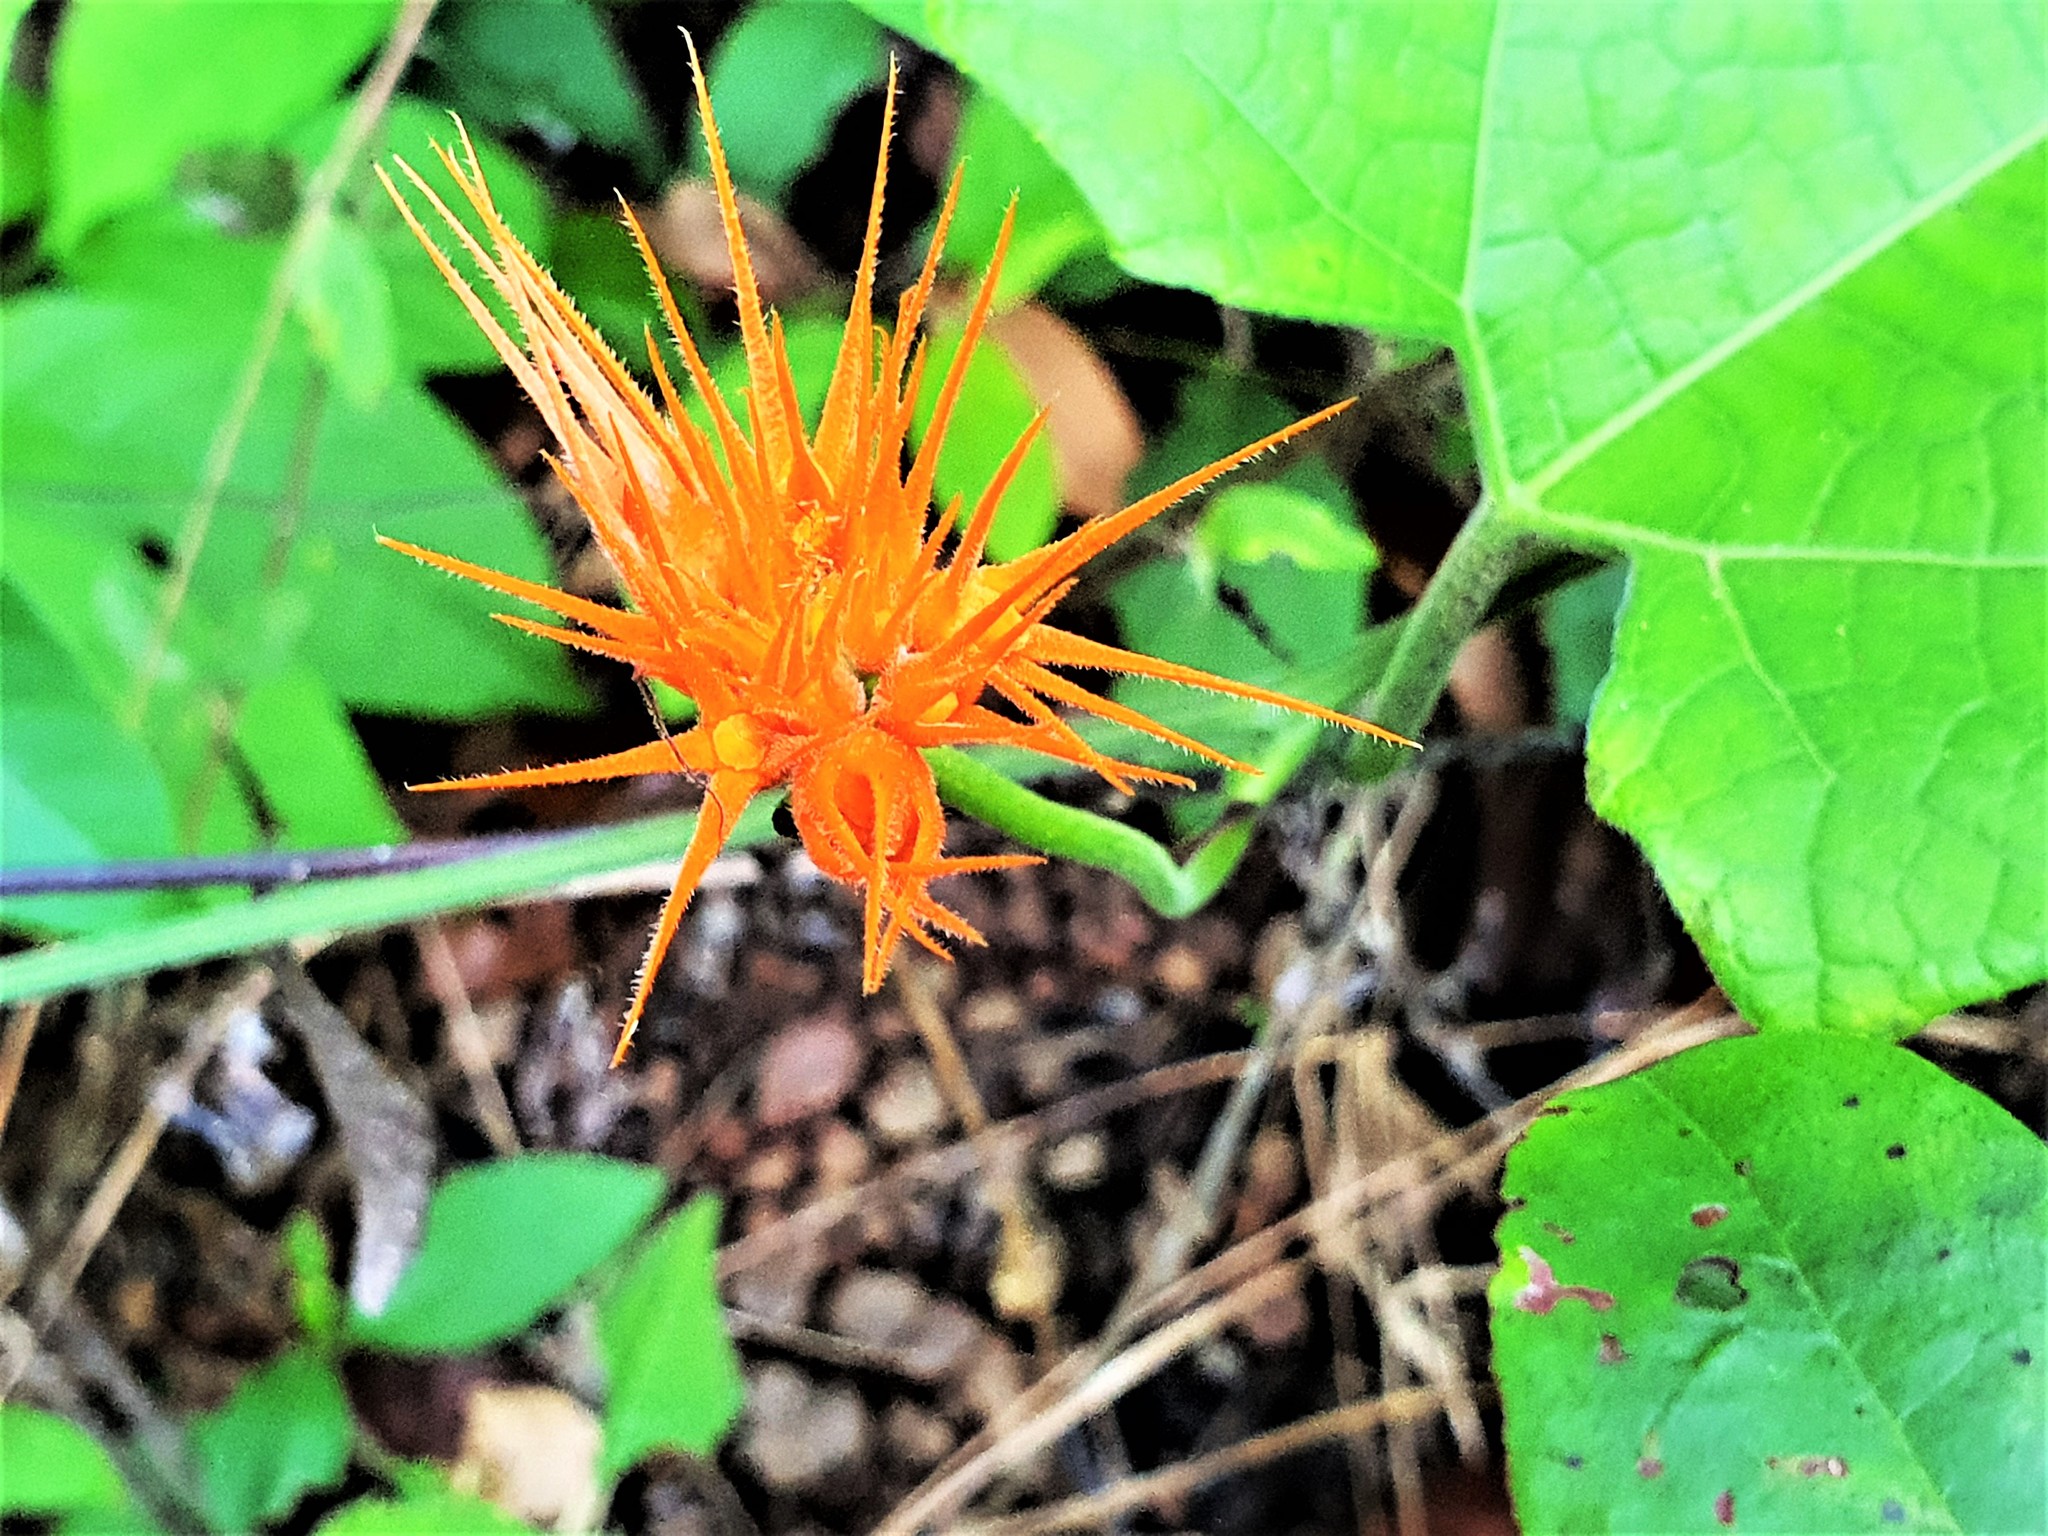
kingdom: Plantae
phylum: Tracheophyta
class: Magnoliopsida
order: Cucurbitales
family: Cucurbitaceae
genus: Gurania
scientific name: Gurania reticulata
